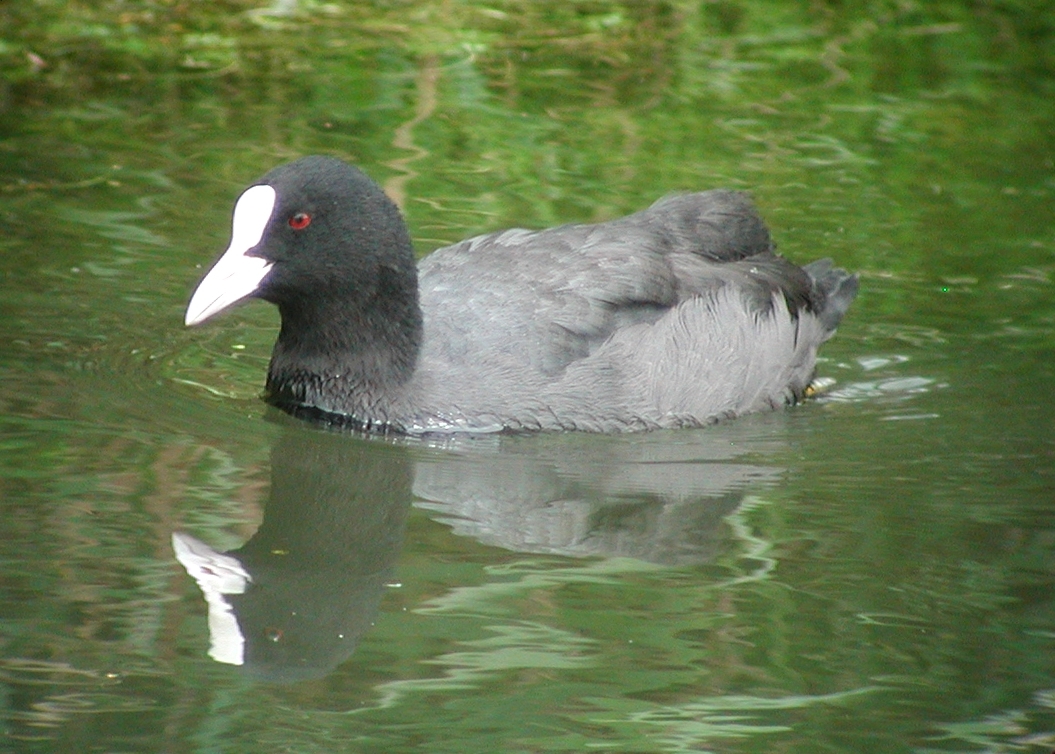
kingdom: Animalia
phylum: Chordata
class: Aves
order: Gruiformes
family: Rallidae
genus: Fulica
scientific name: Fulica atra
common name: Eurasian coot
